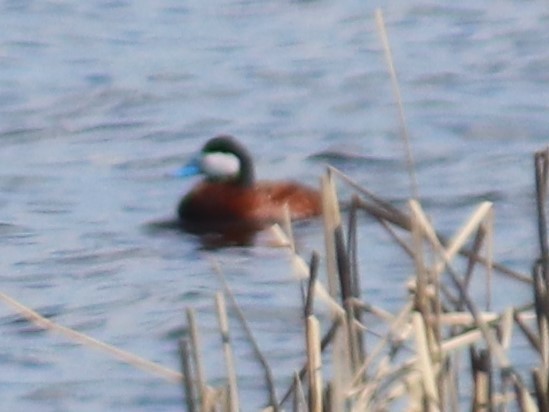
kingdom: Animalia
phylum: Chordata
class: Aves
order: Anseriformes
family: Anatidae
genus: Oxyura
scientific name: Oxyura jamaicensis
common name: Ruddy duck
